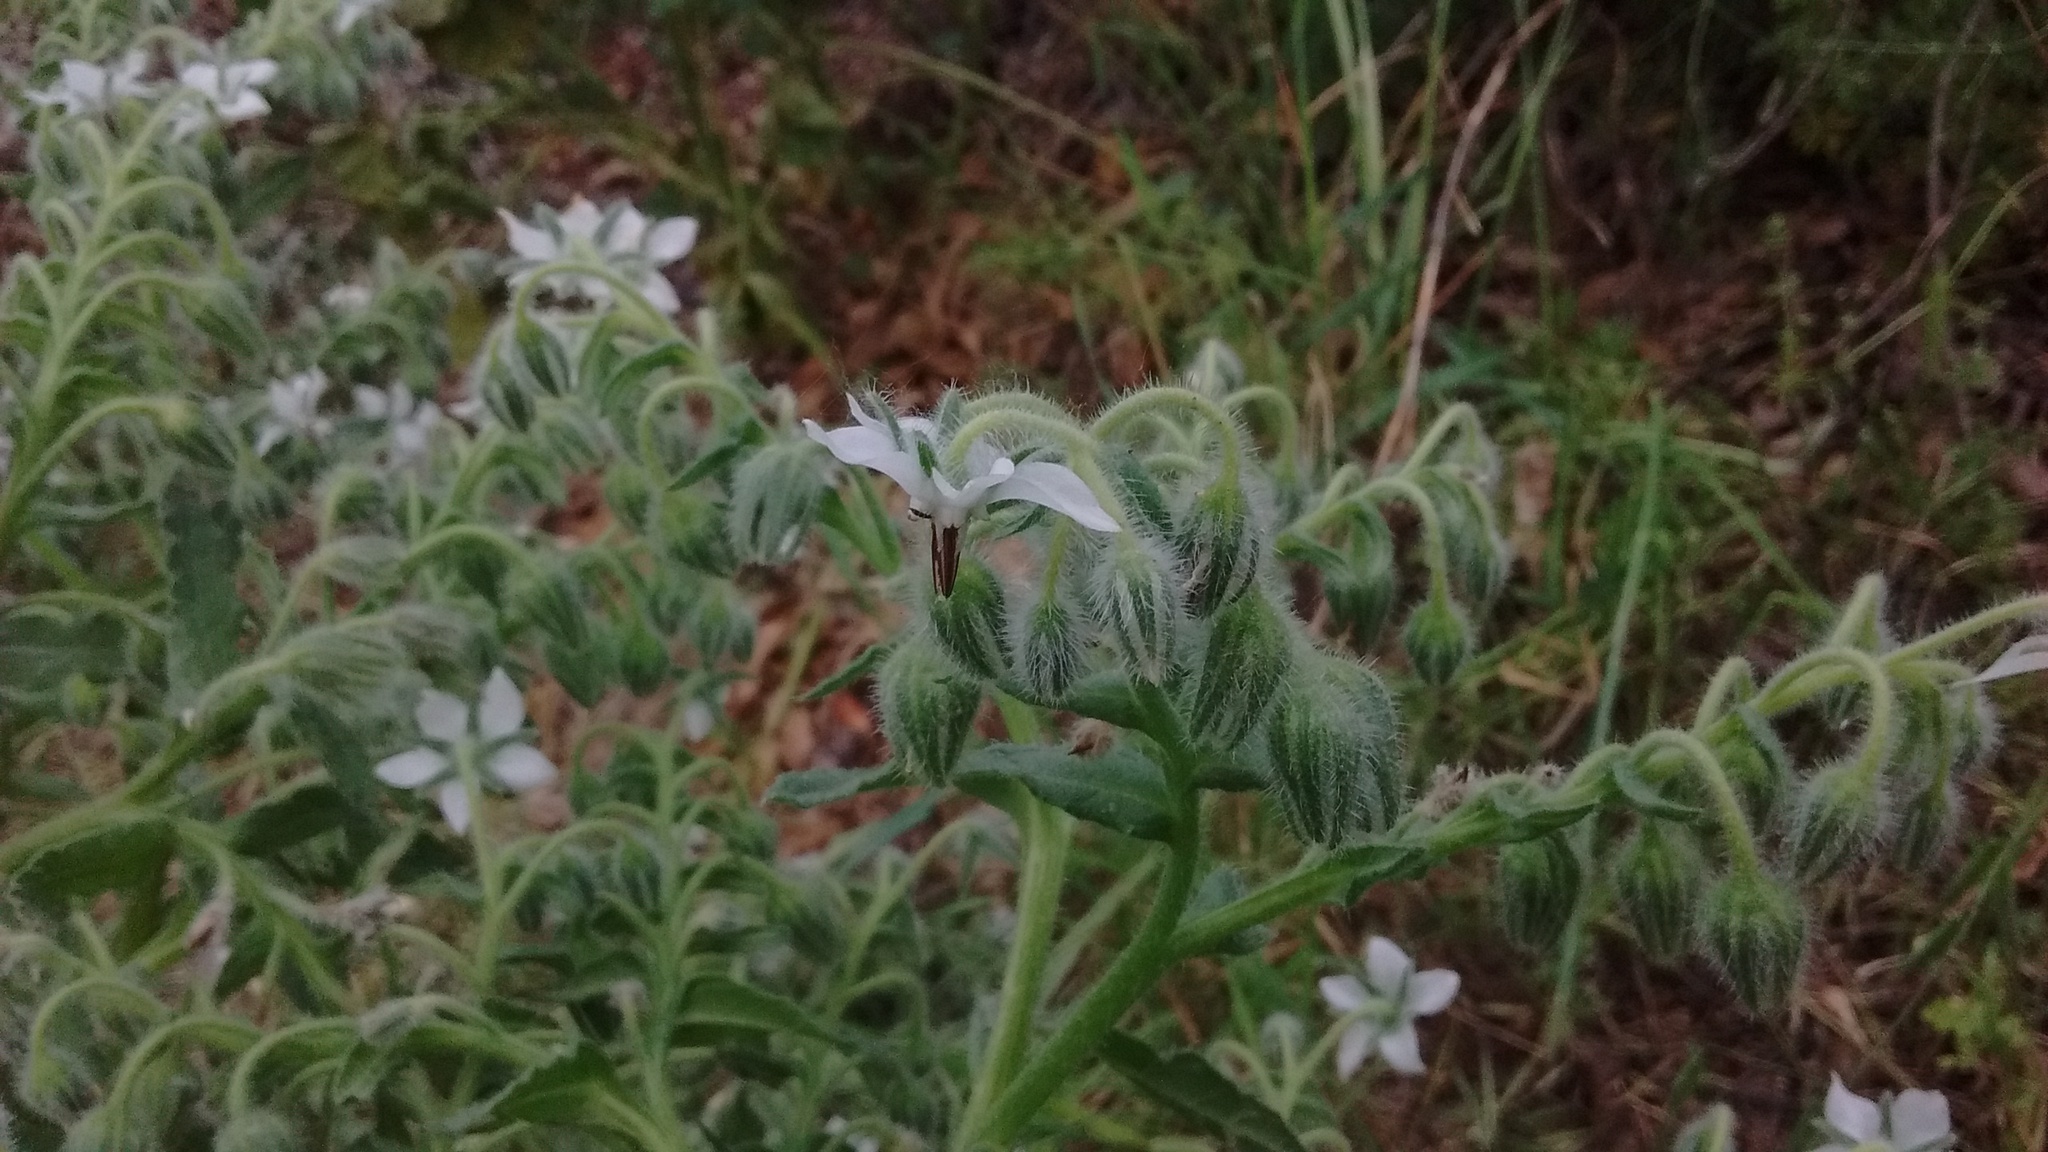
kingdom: Plantae
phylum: Tracheophyta
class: Magnoliopsida
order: Boraginales
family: Boraginaceae
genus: Borago
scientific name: Borago officinalis
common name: Borage
